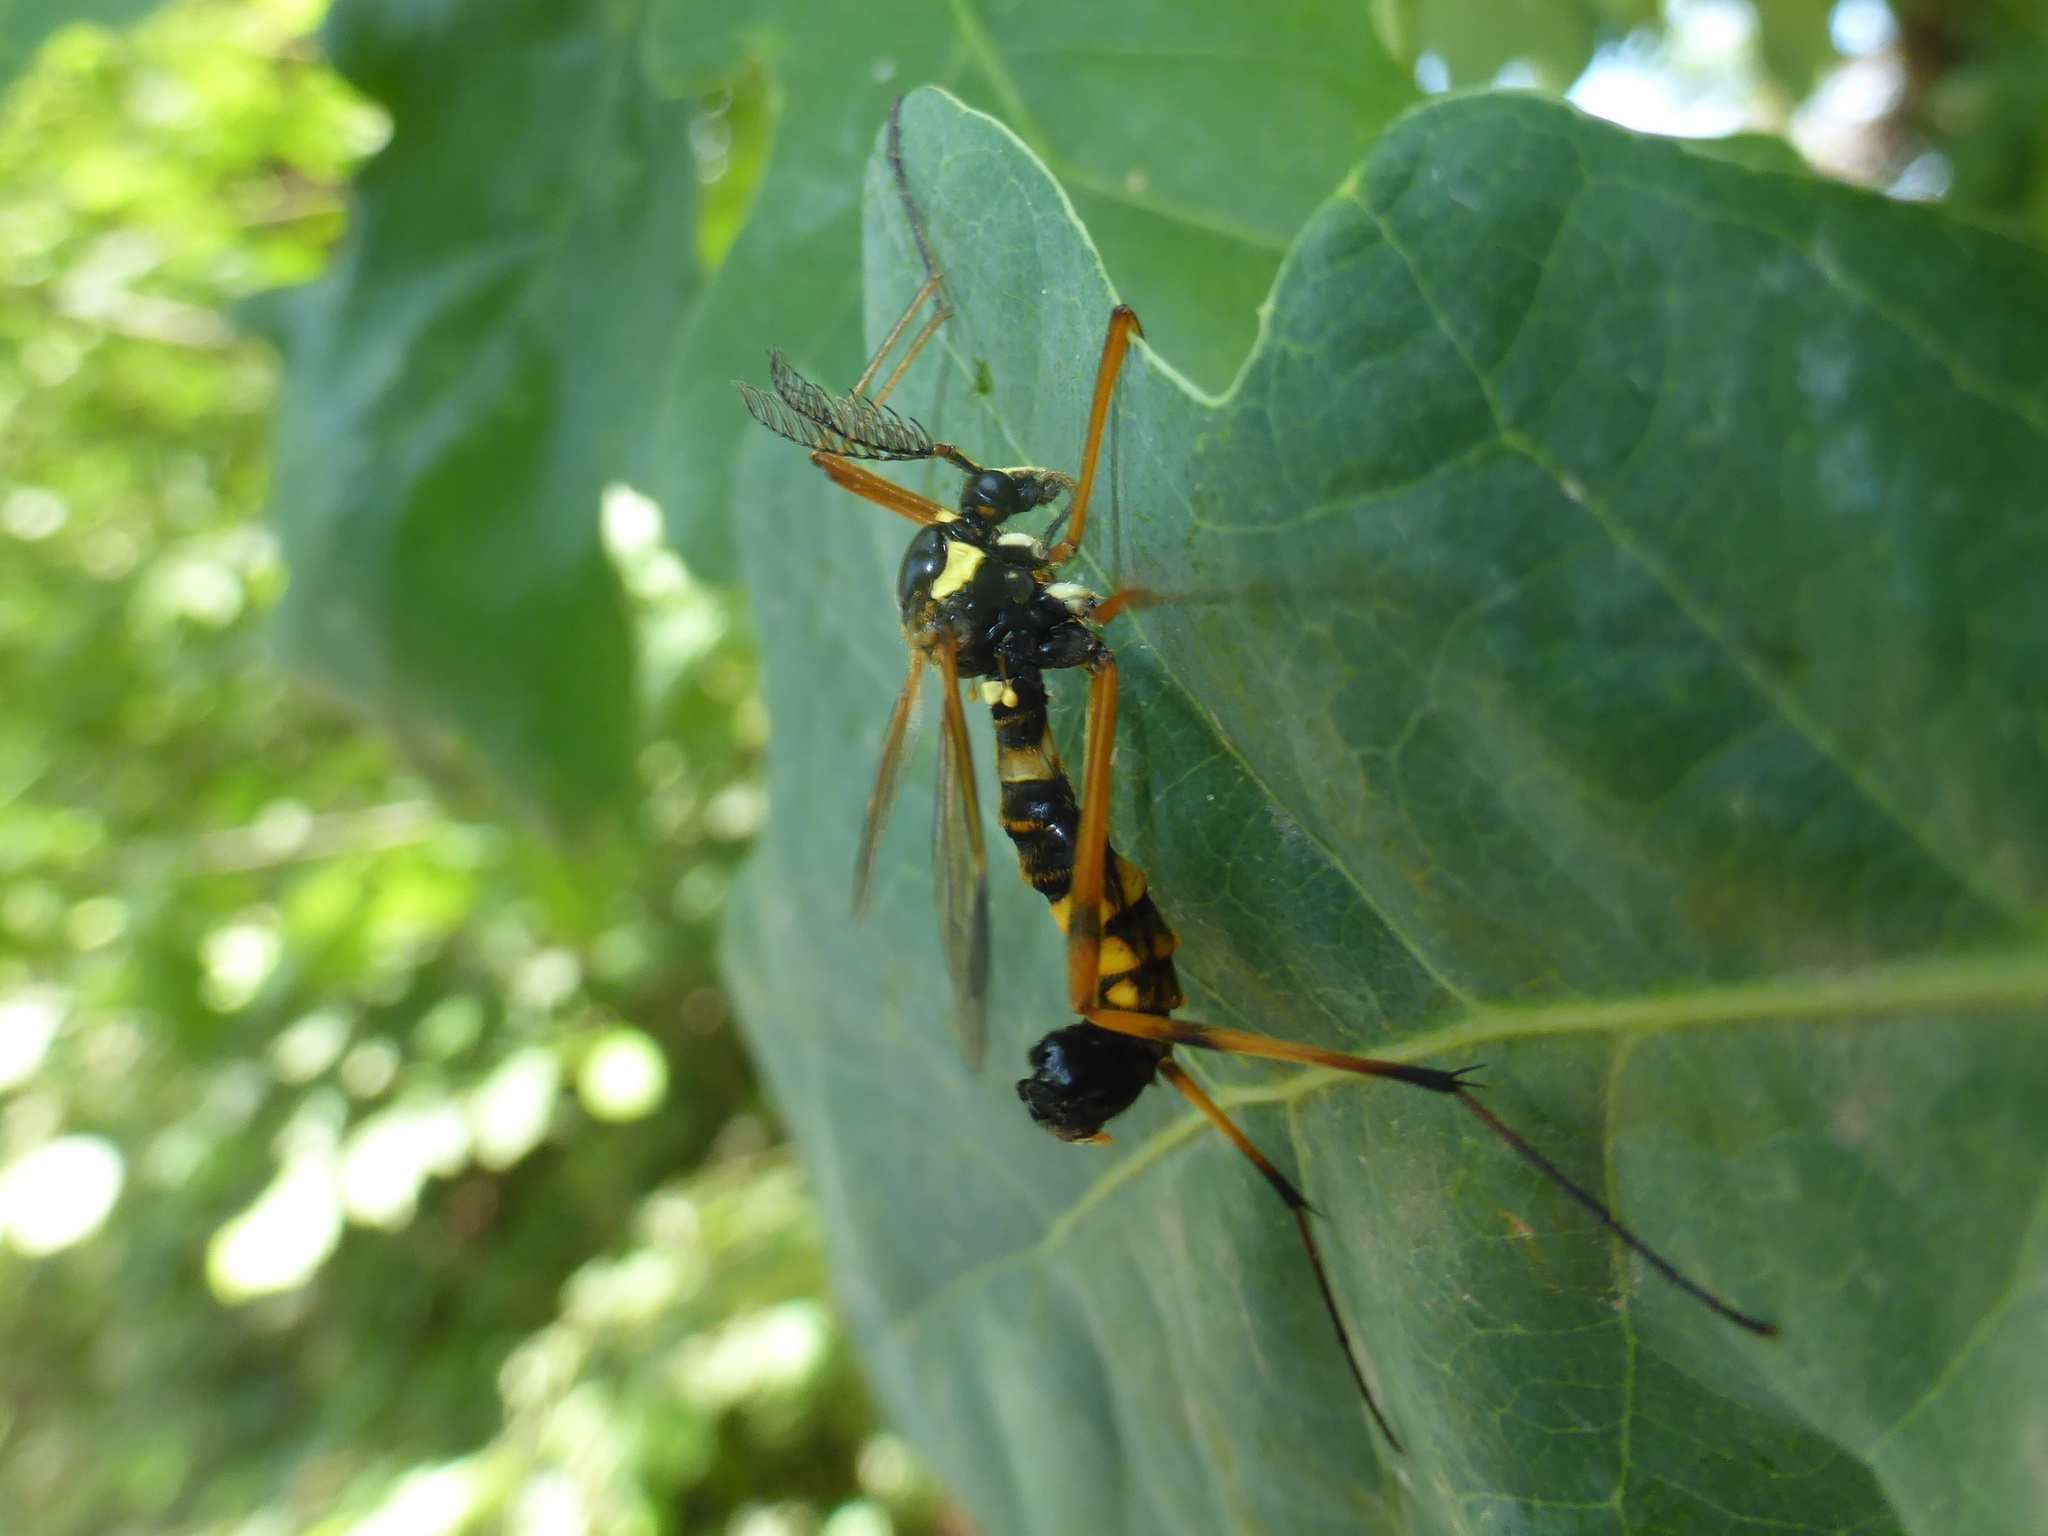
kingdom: Animalia
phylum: Arthropoda
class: Insecta
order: Diptera
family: Tipulidae
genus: Ctenophora
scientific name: Ctenophora festiva
